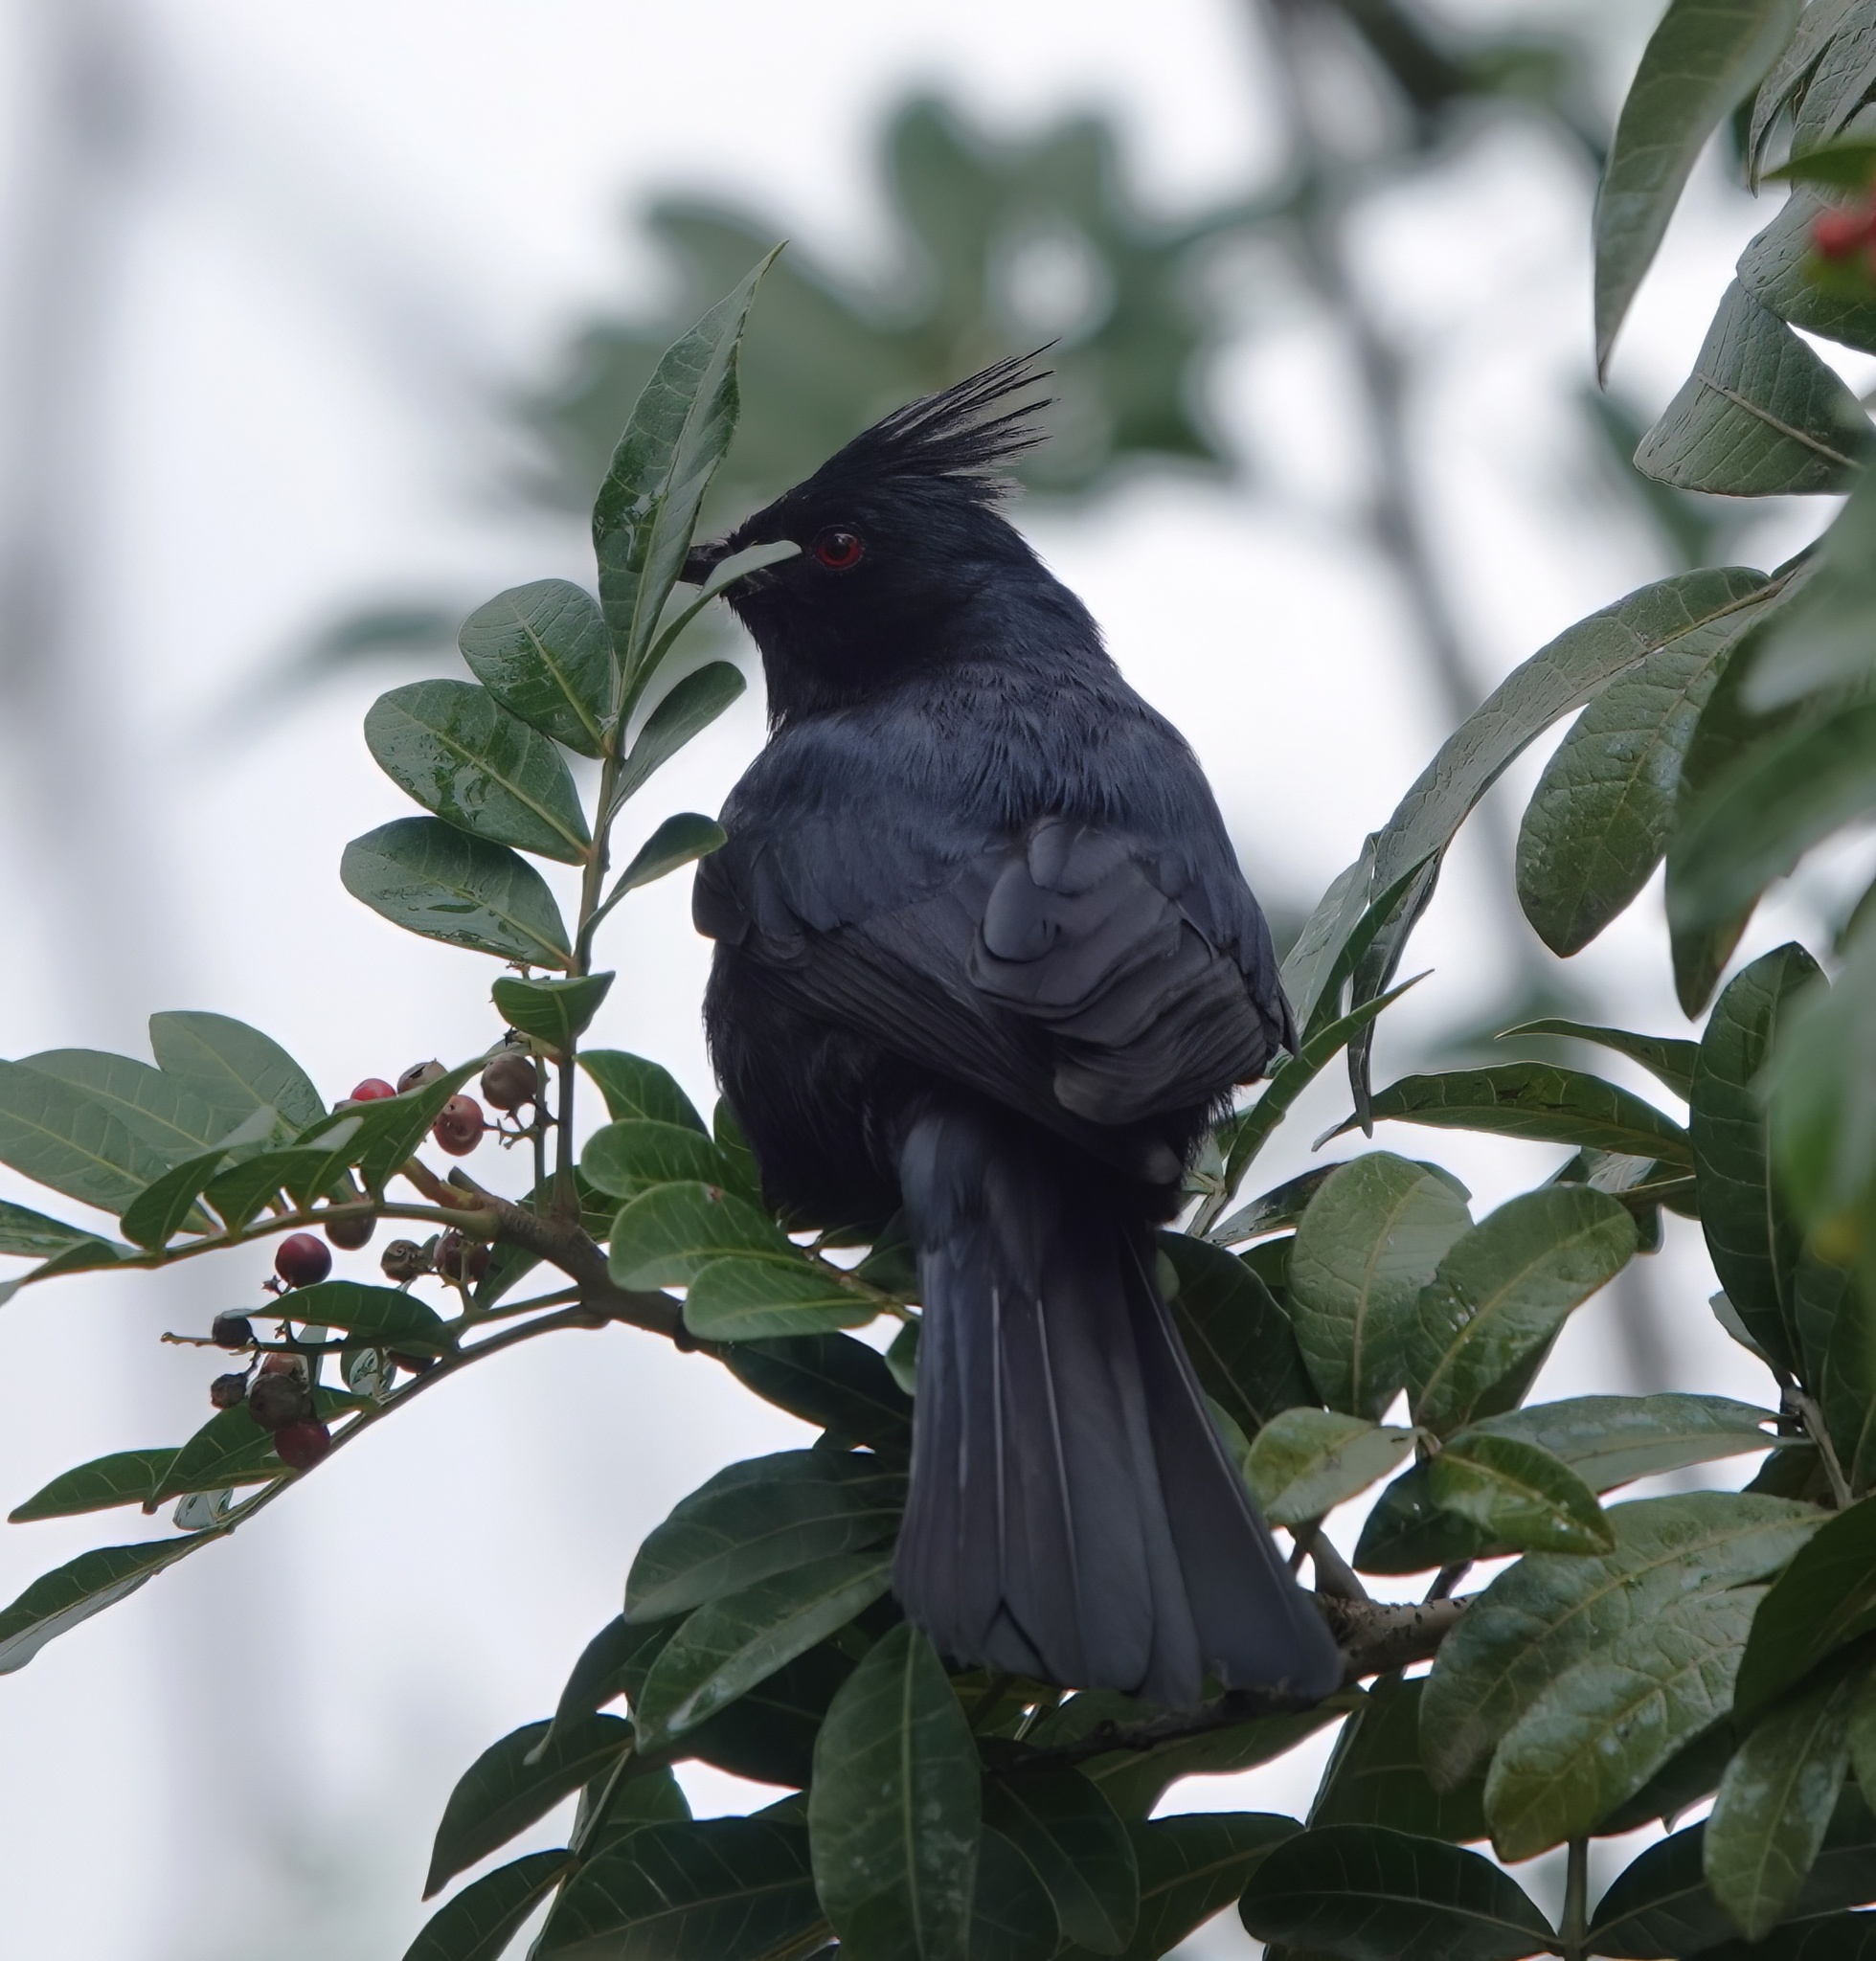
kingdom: Animalia
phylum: Chordata
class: Aves
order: Passeriformes
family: Ptilogonatidae
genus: Phainopepla
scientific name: Phainopepla nitens
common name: Phainopepla
